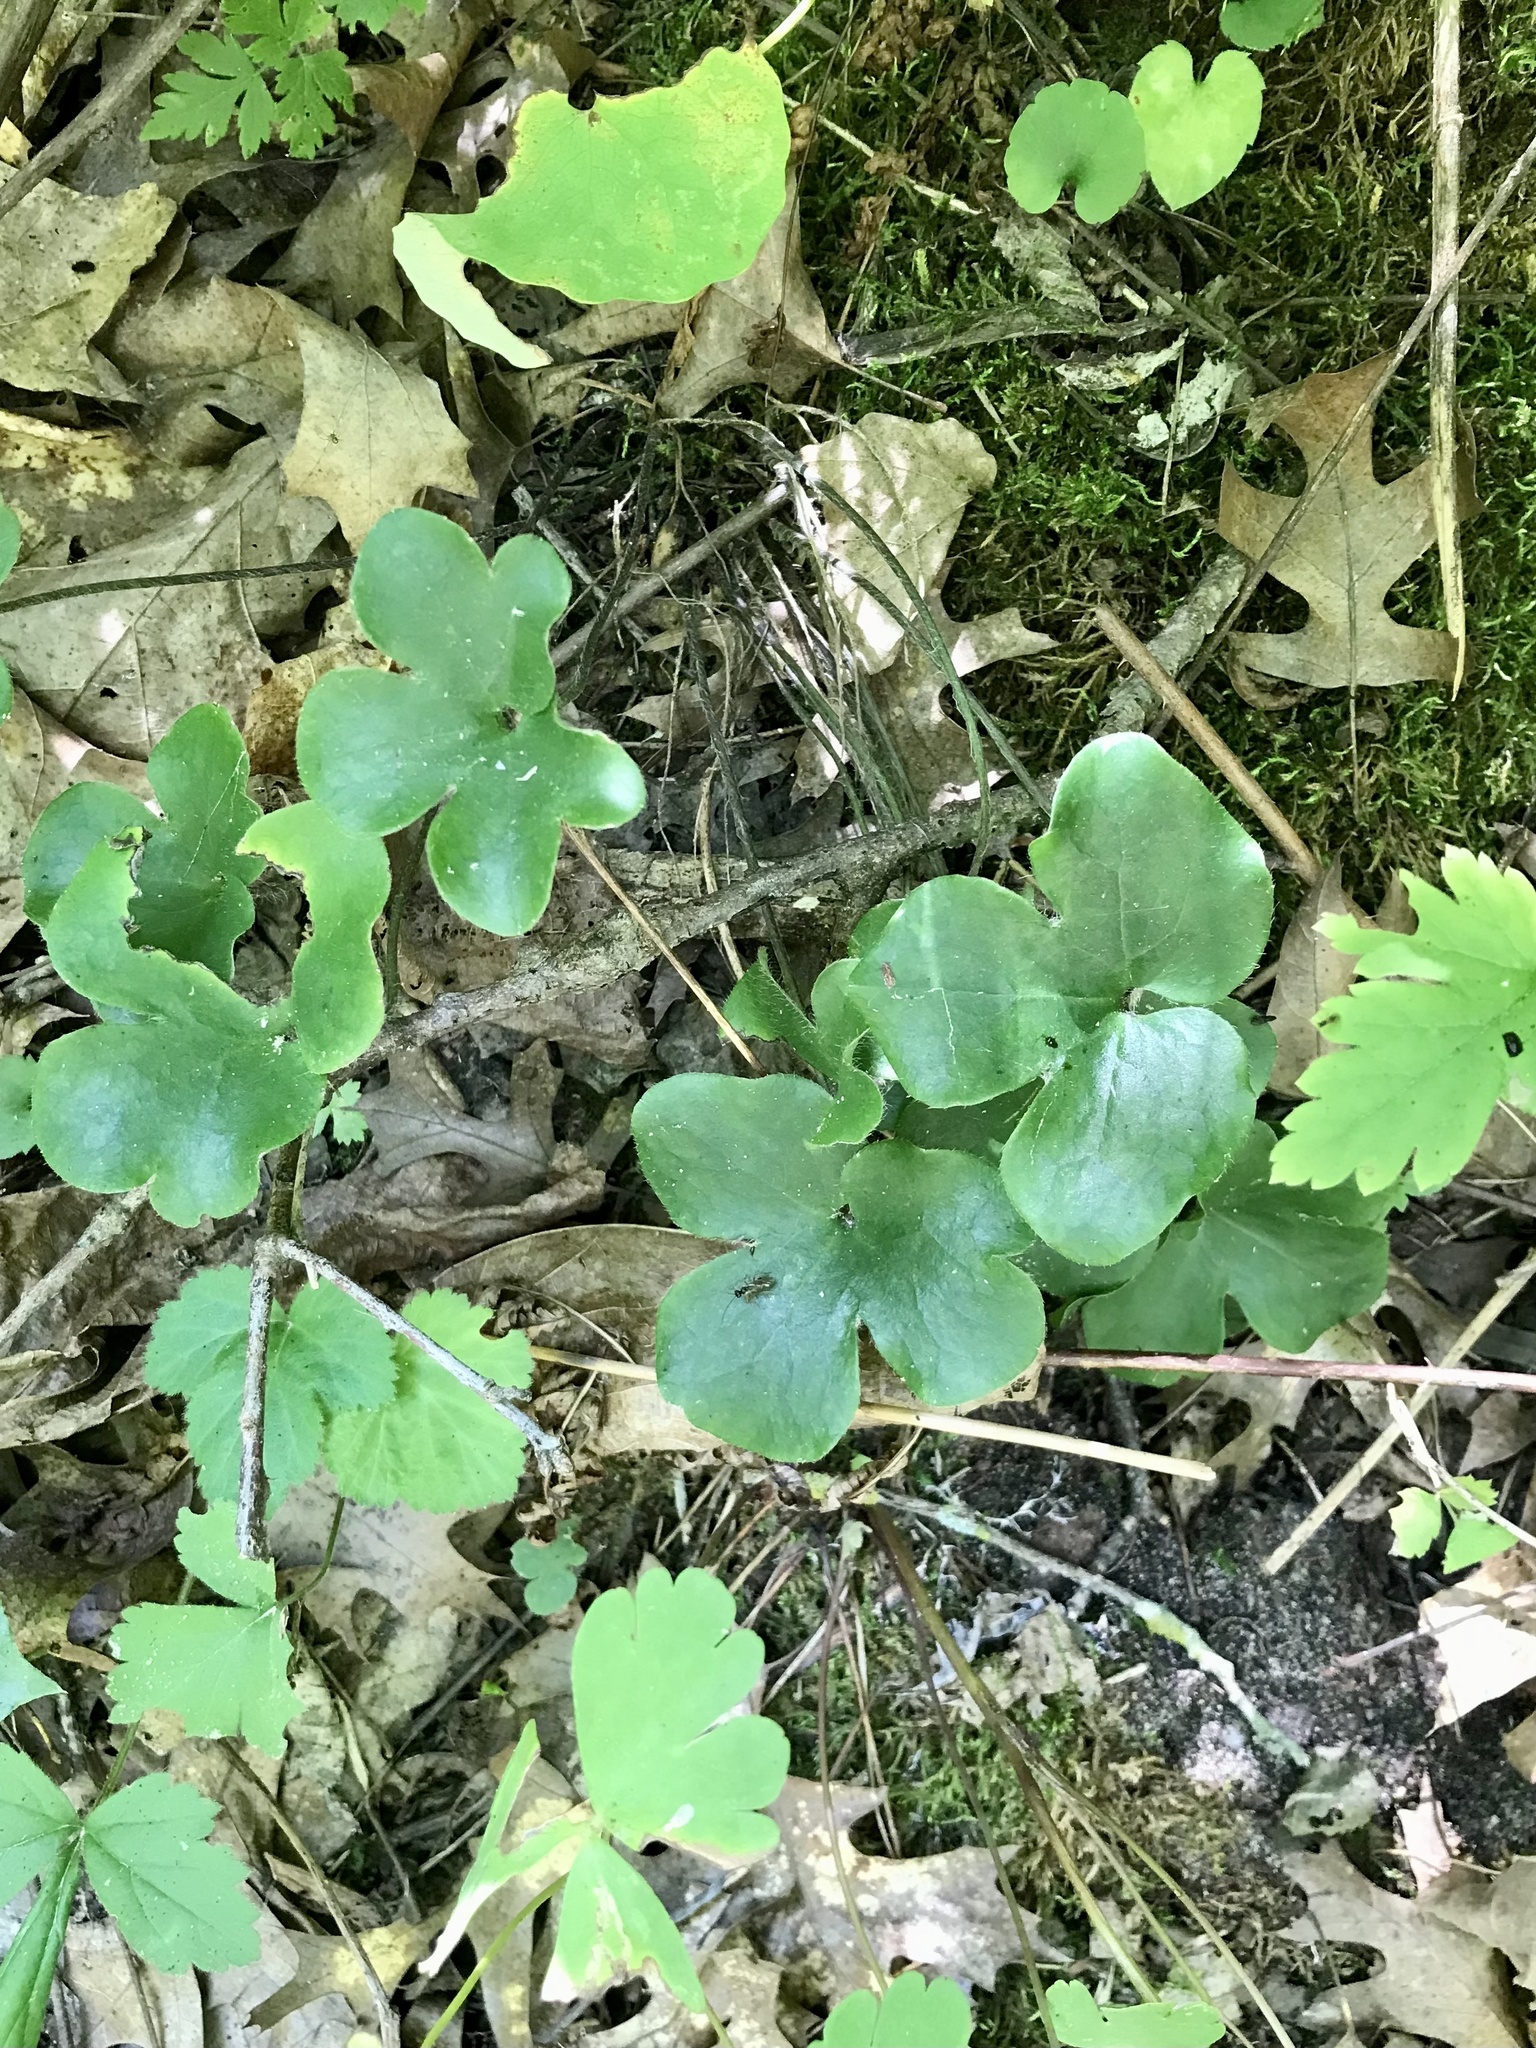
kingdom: Plantae
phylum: Tracheophyta
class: Magnoliopsida
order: Ranunculales
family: Ranunculaceae
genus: Hepatica
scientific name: Hepatica americana
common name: American hepatica
